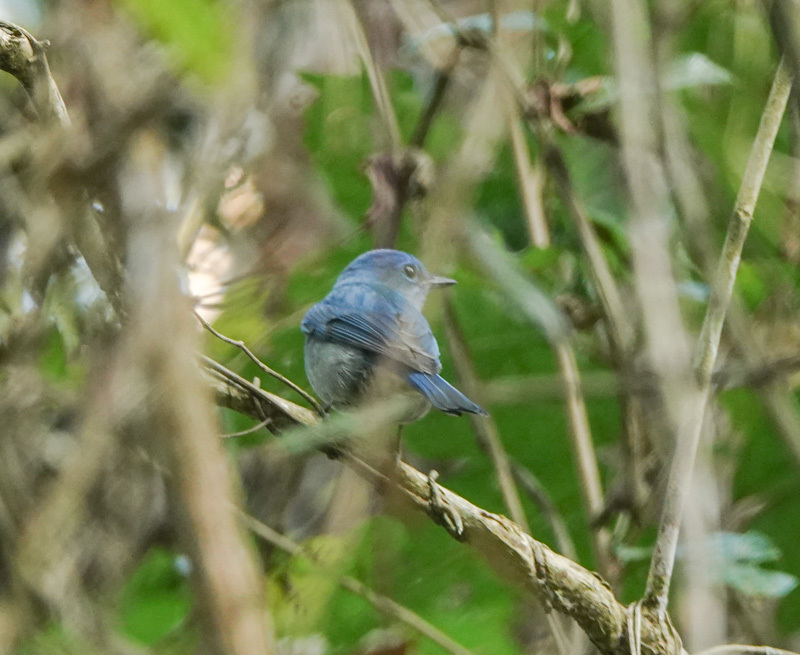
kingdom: Animalia
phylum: Chordata
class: Aves
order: Passeriformes
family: Muscicapidae
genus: Cyornis
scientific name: Cyornis unicolor
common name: Pale blue flycatcher
